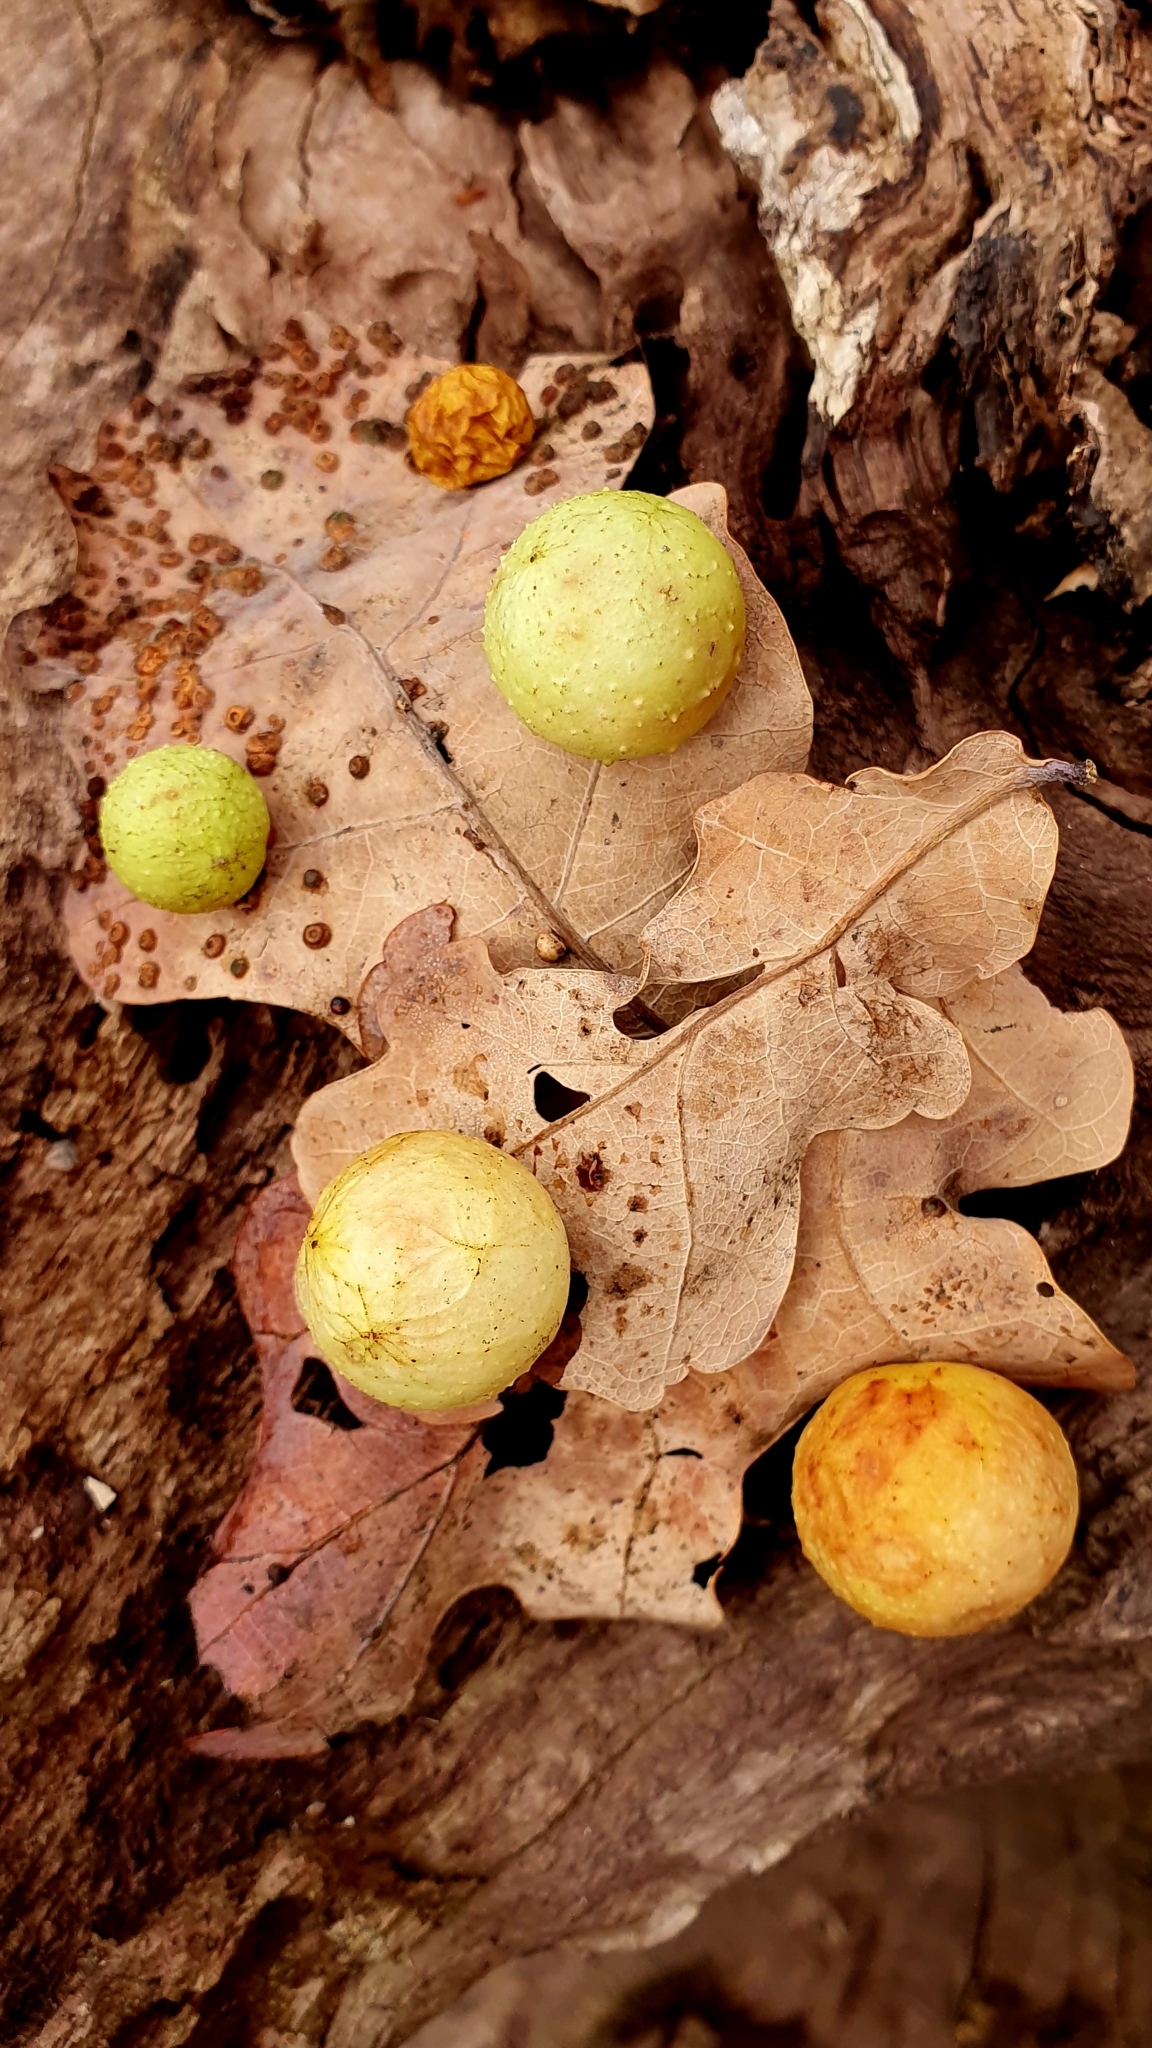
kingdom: Animalia
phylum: Arthropoda
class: Insecta
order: Hymenoptera
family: Cynipidae
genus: Cynips
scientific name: Cynips quercusfolii
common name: Cherry gall
